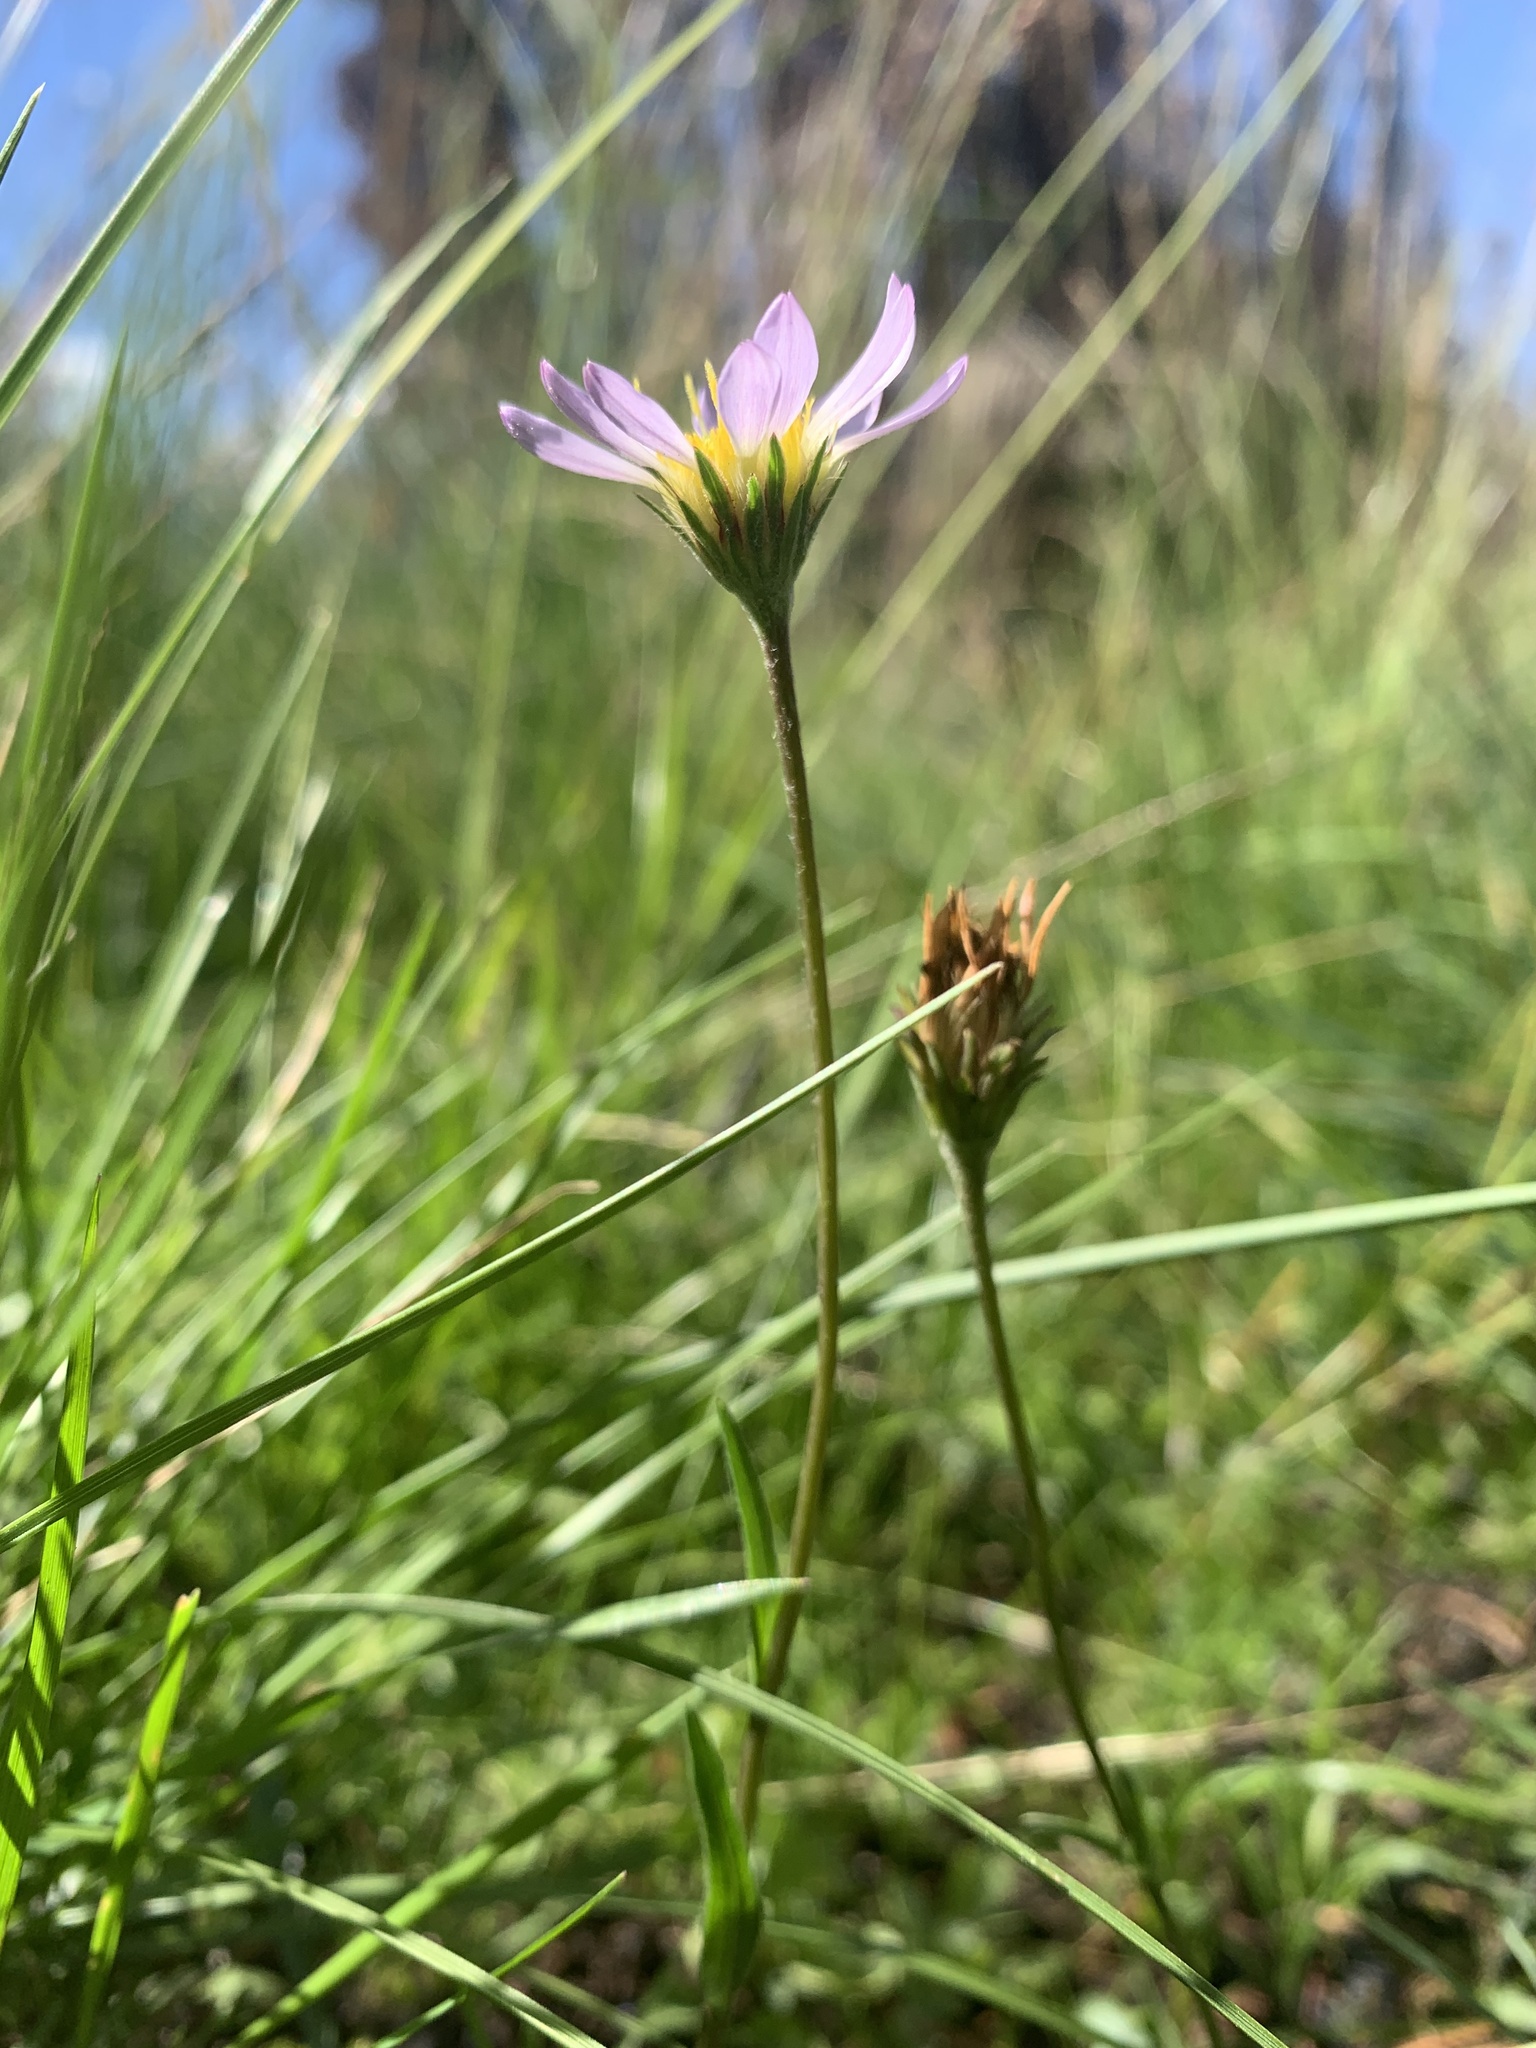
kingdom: Plantae
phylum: Tracheophyta
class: Magnoliopsida
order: Asterales
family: Asteraceae
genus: Oreostemma
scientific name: Oreostemma alpigenum
